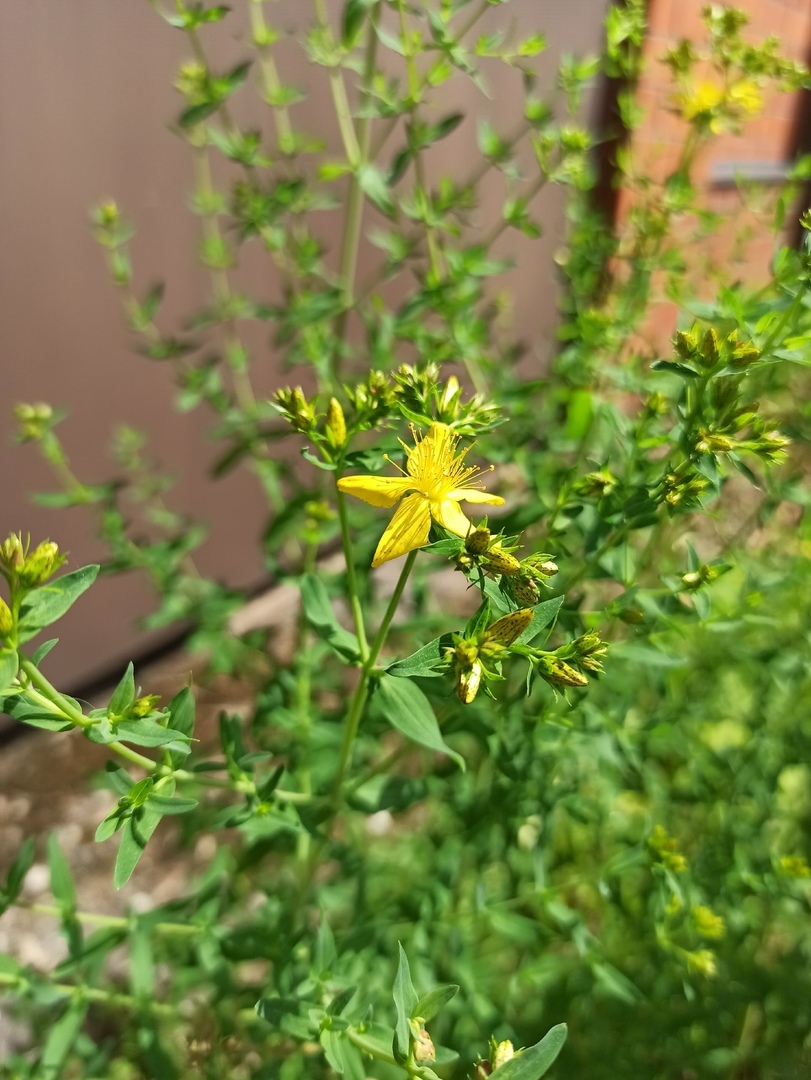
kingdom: Plantae
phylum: Tracheophyta
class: Magnoliopsida
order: Malpighiales
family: Hypericaceae
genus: Hypericum
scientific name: Hypericum perforatum
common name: Common st. johnswort
